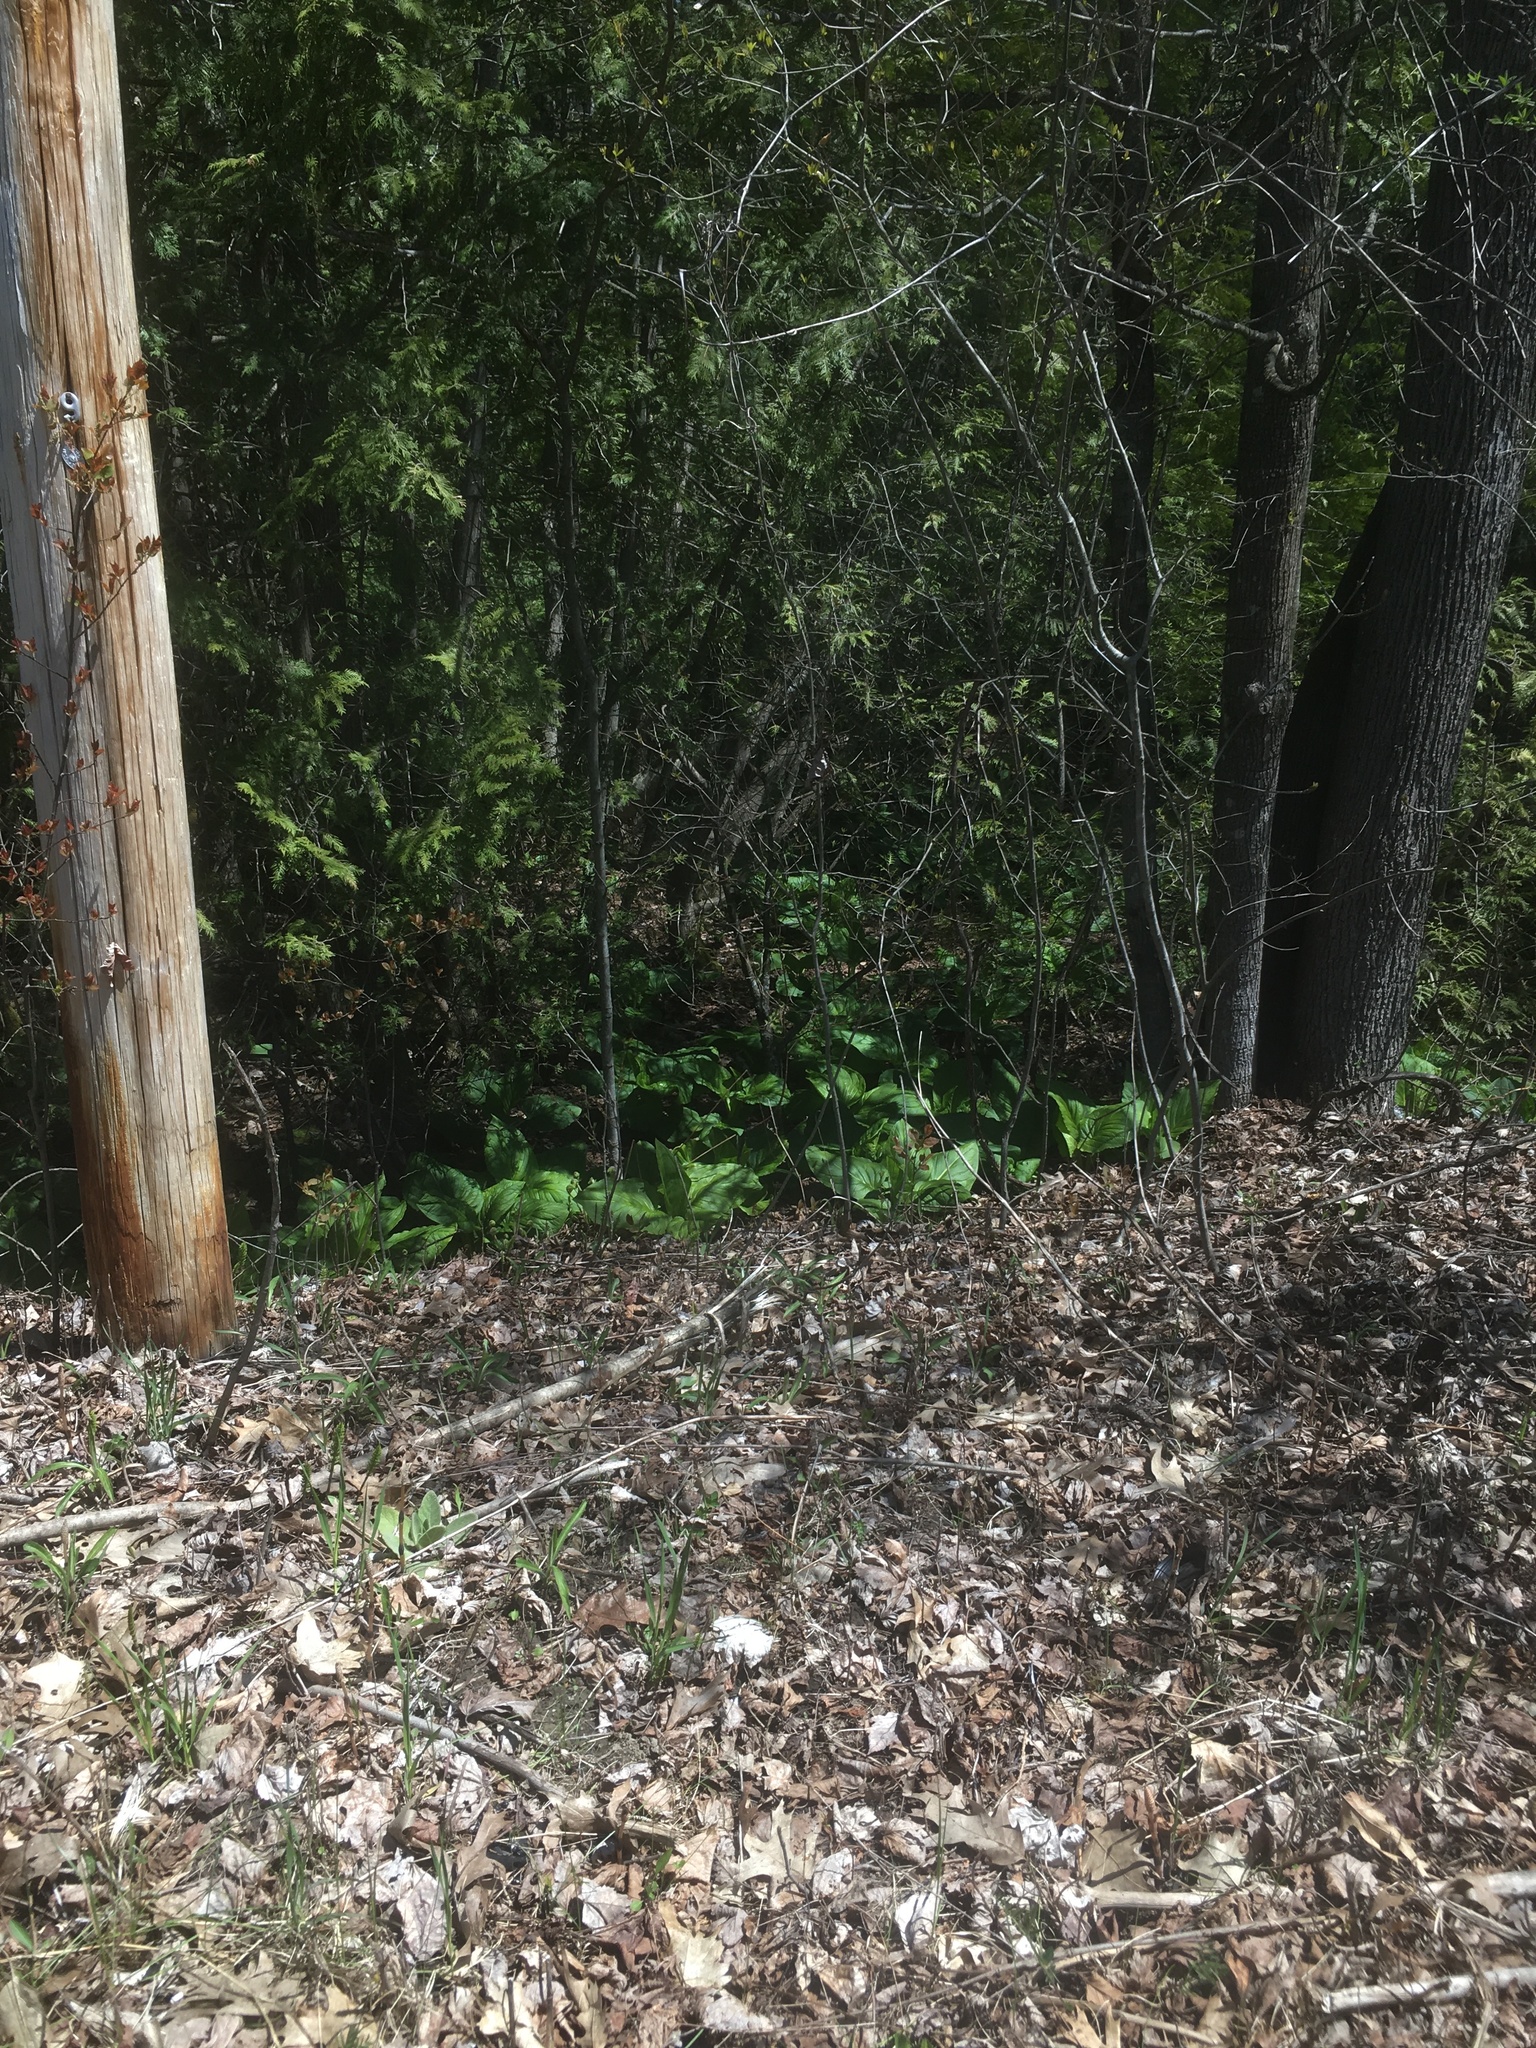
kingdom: Plantae
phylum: Tracheophyta
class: Liliopsida
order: Alismatales
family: Araceae
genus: Symplocarpus
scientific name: Symplocarpus foetidus
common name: Eastern skunk cabbage
